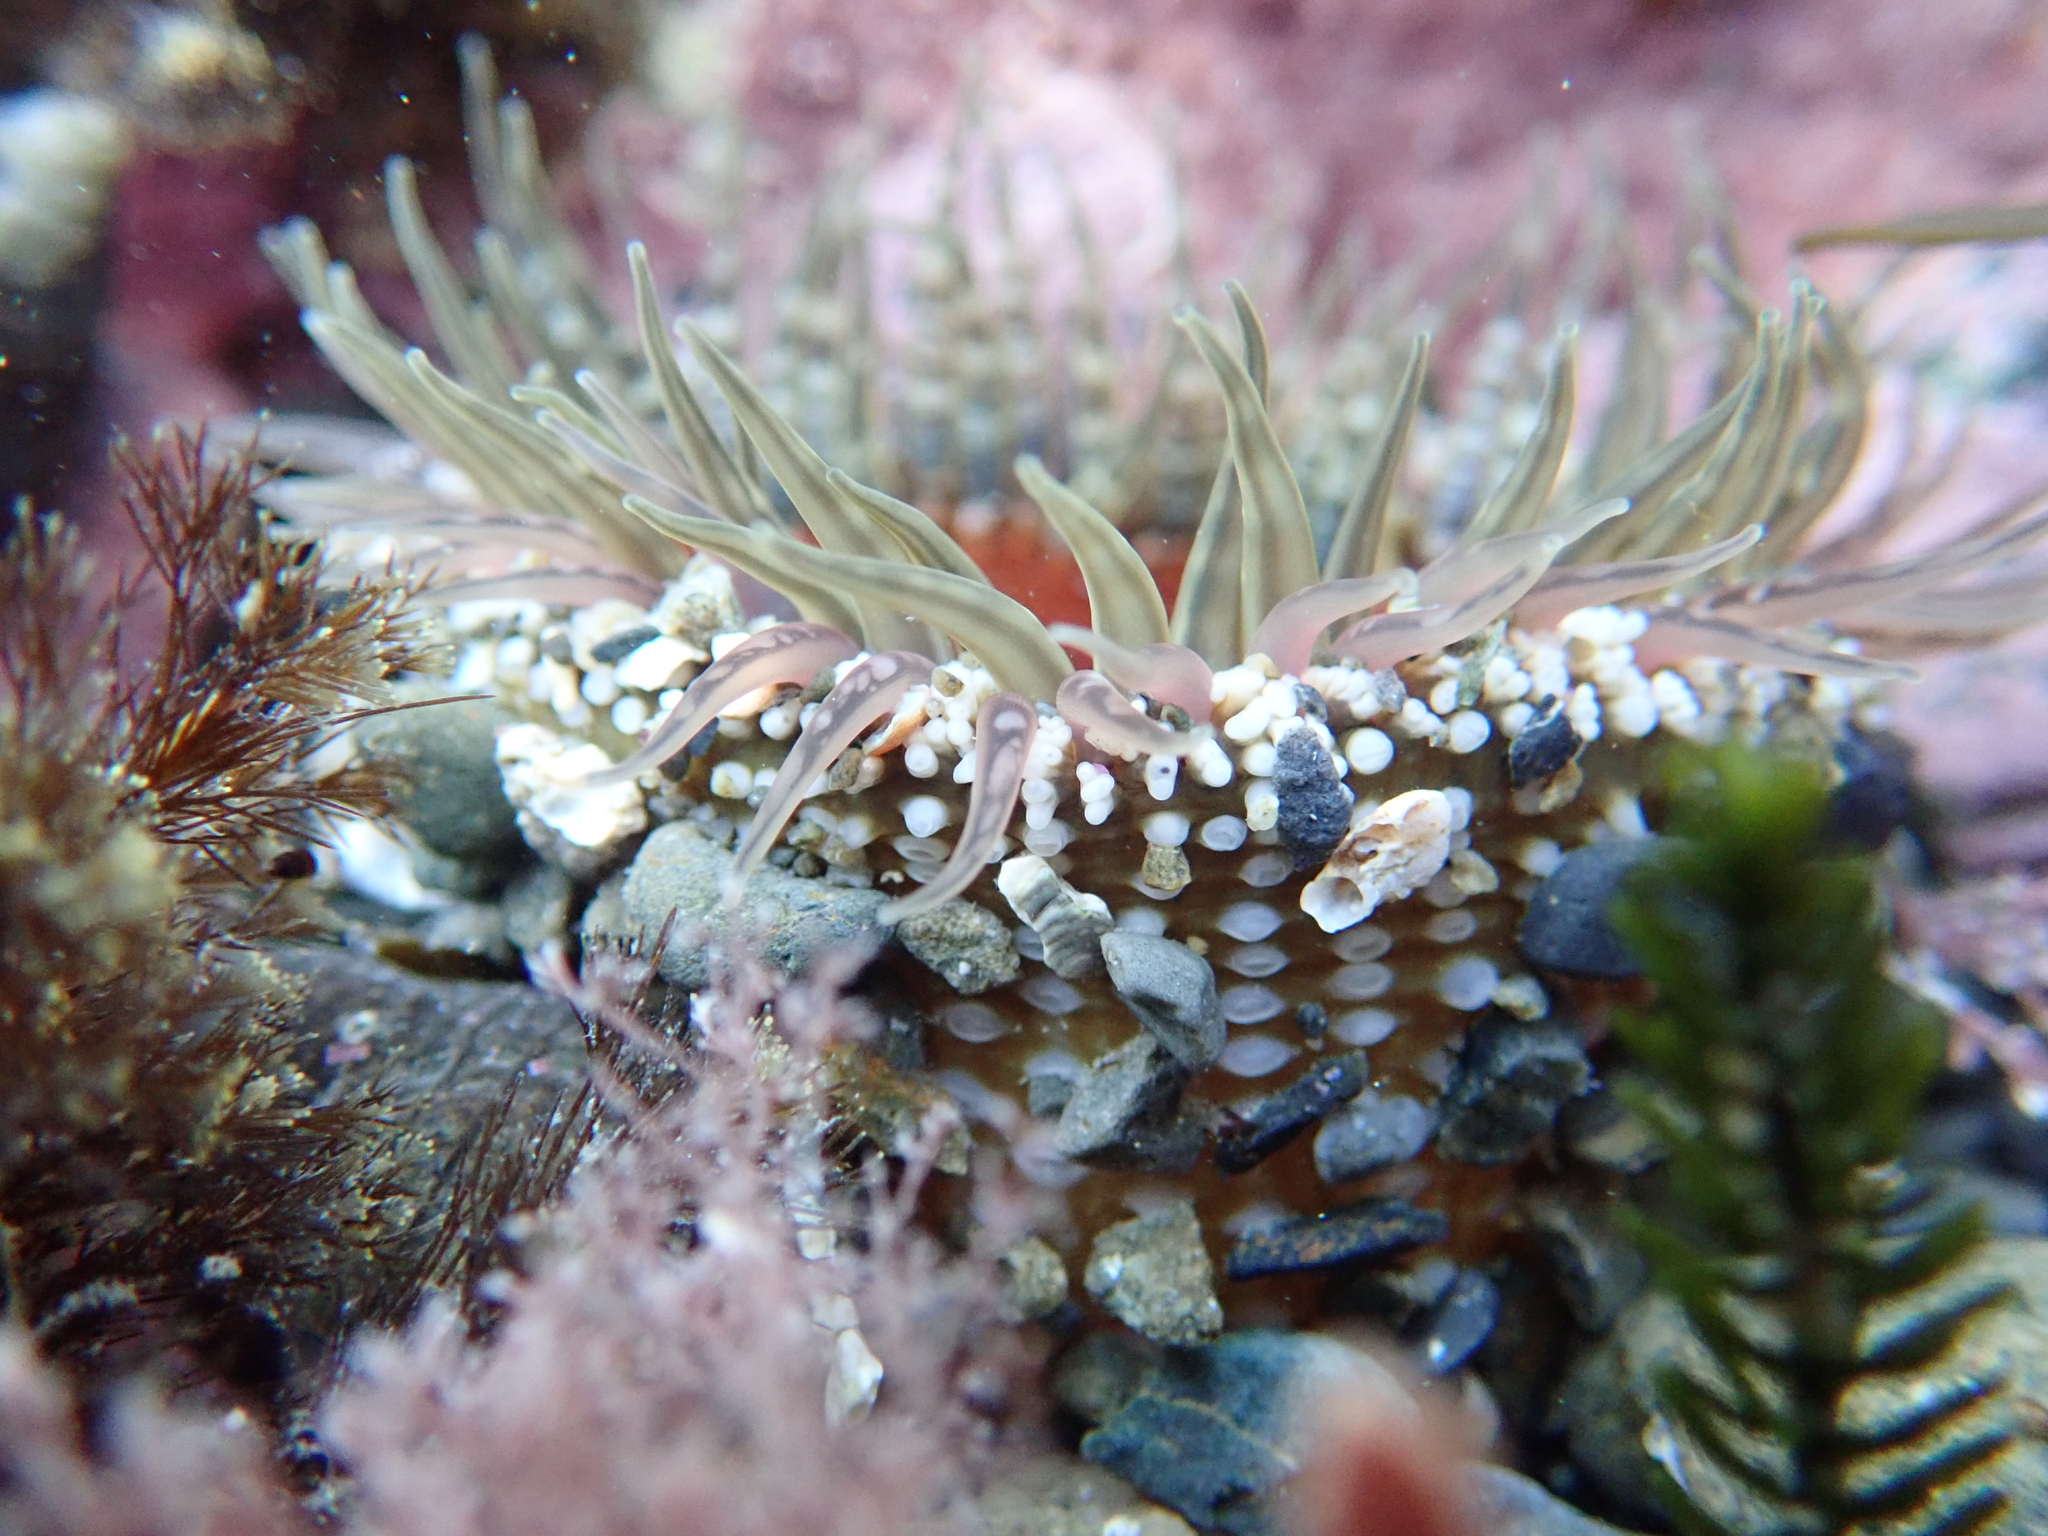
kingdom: Animalia
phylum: Cnidaria
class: Anthozoa
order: Actiniaria
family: Actiniidae
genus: Oulactis
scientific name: Oulactis muscosa
